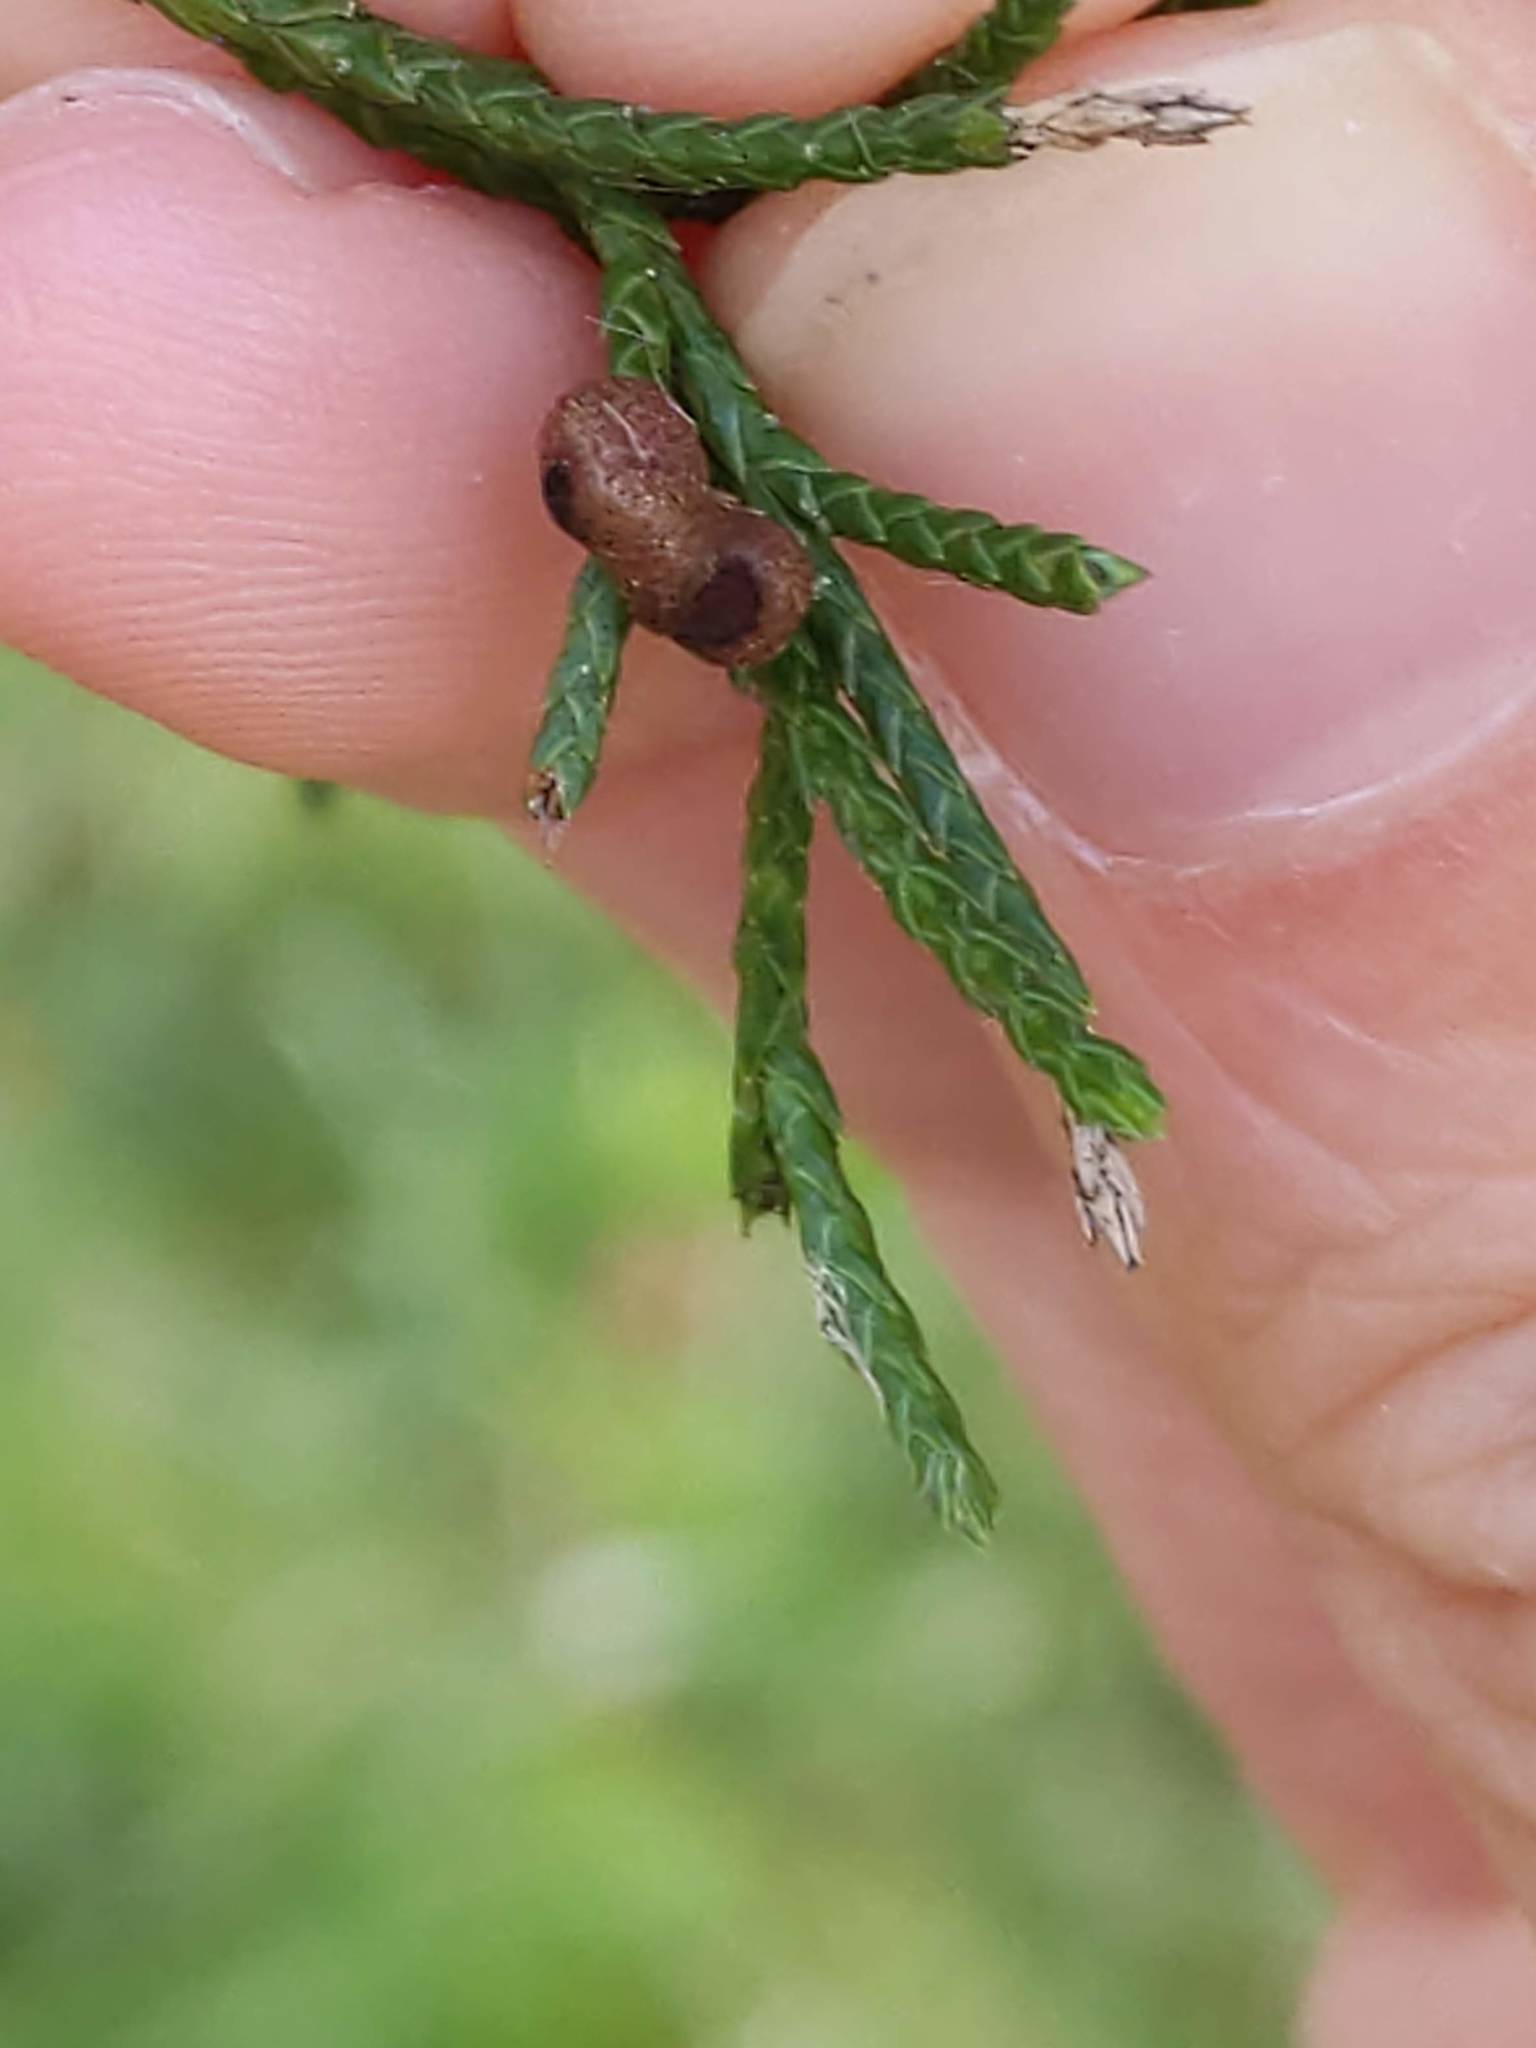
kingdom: Fungi
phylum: Basidiomycota
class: Pucciniomycetes
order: Pucciniales
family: Gymnosporangiaceae
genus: Gymnosporangium
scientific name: Gymnosporangium juniperi-virginianae
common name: Juniper-apple rust
